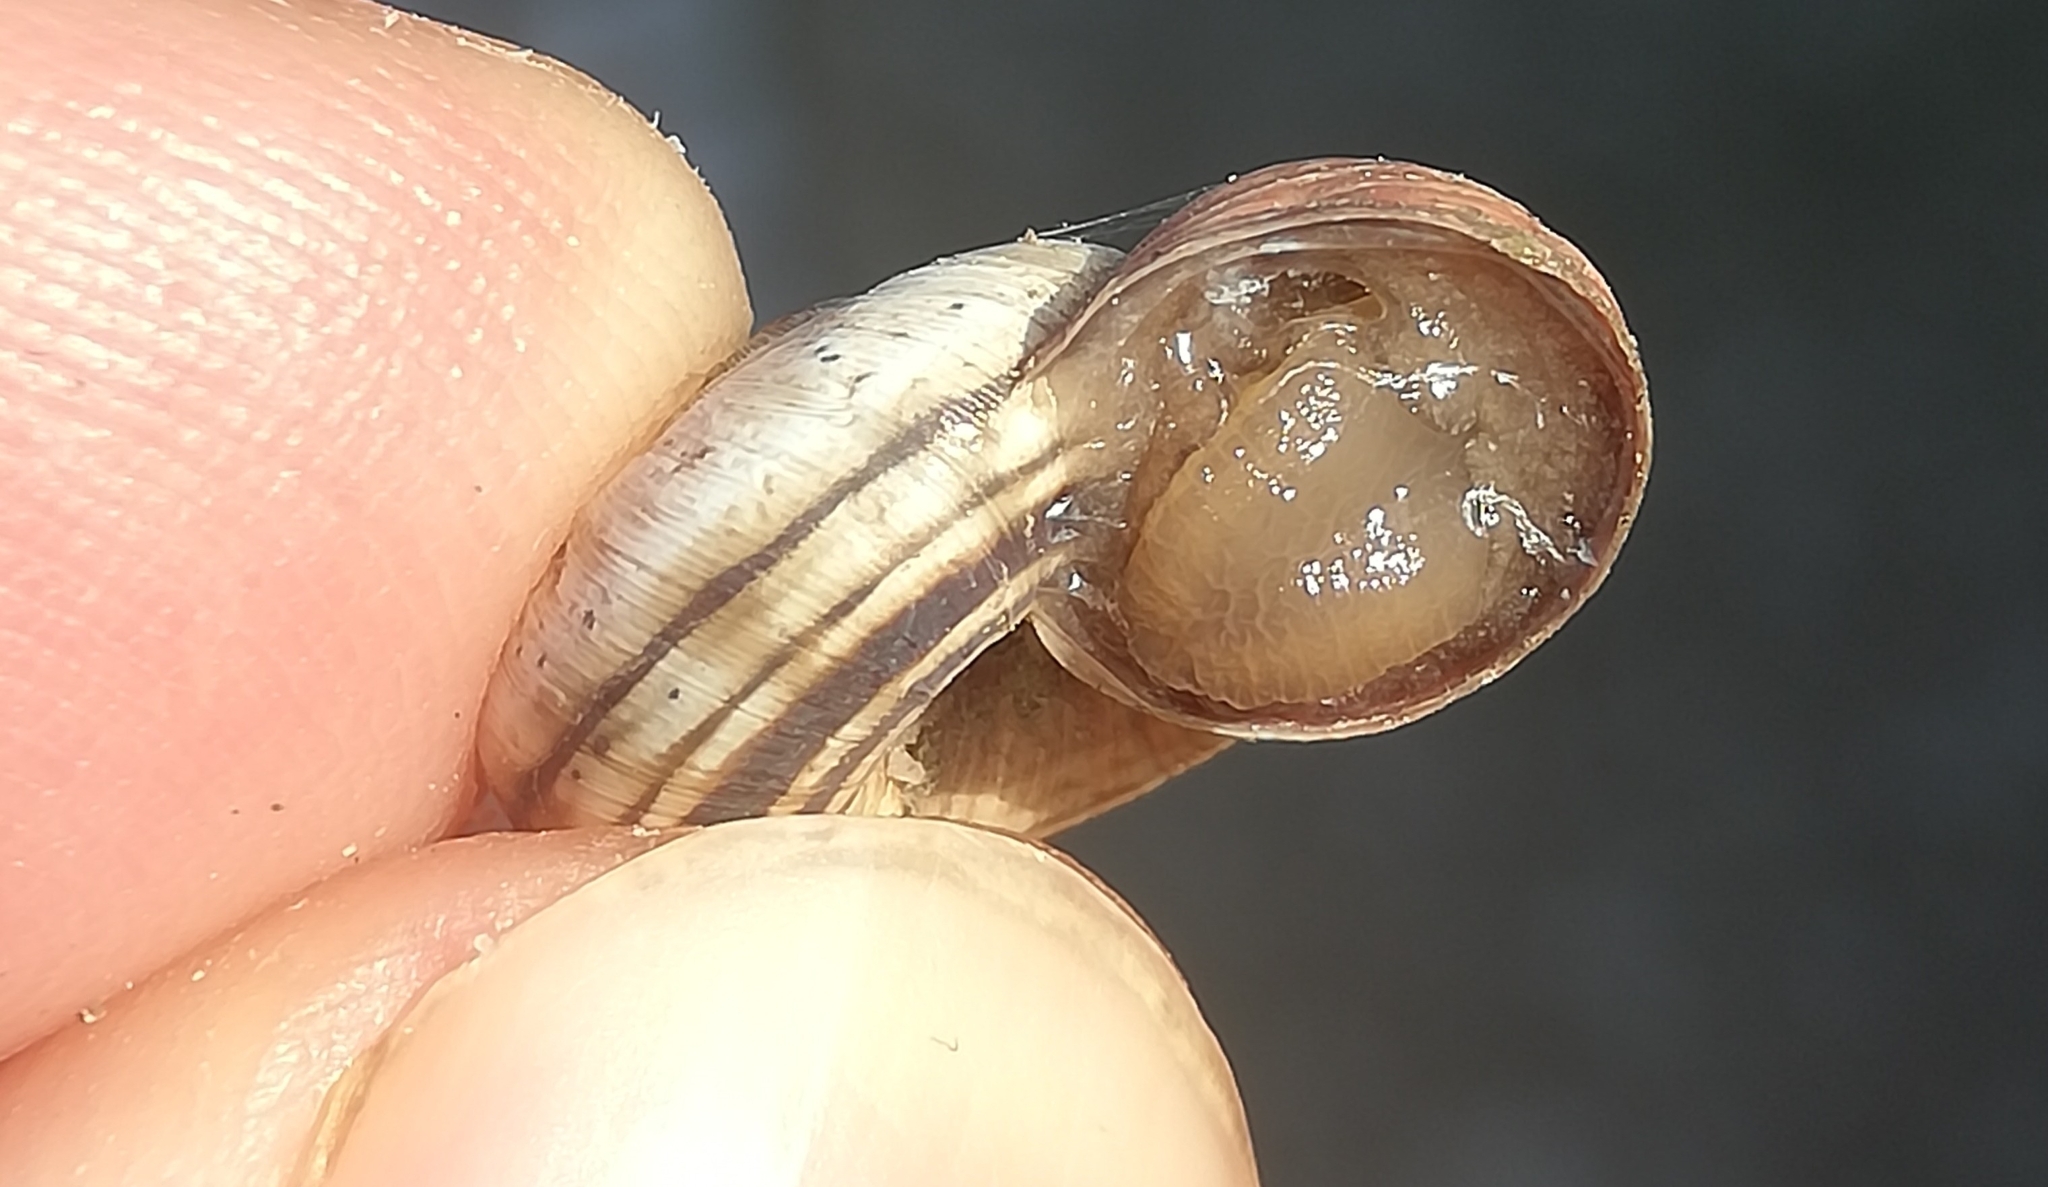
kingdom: Animalia
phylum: Mollusca
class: Gastropoda
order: Stylommatophora
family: Geomitridae
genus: Cernuella
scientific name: Cernuella neglecta
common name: Neglected dune snail
